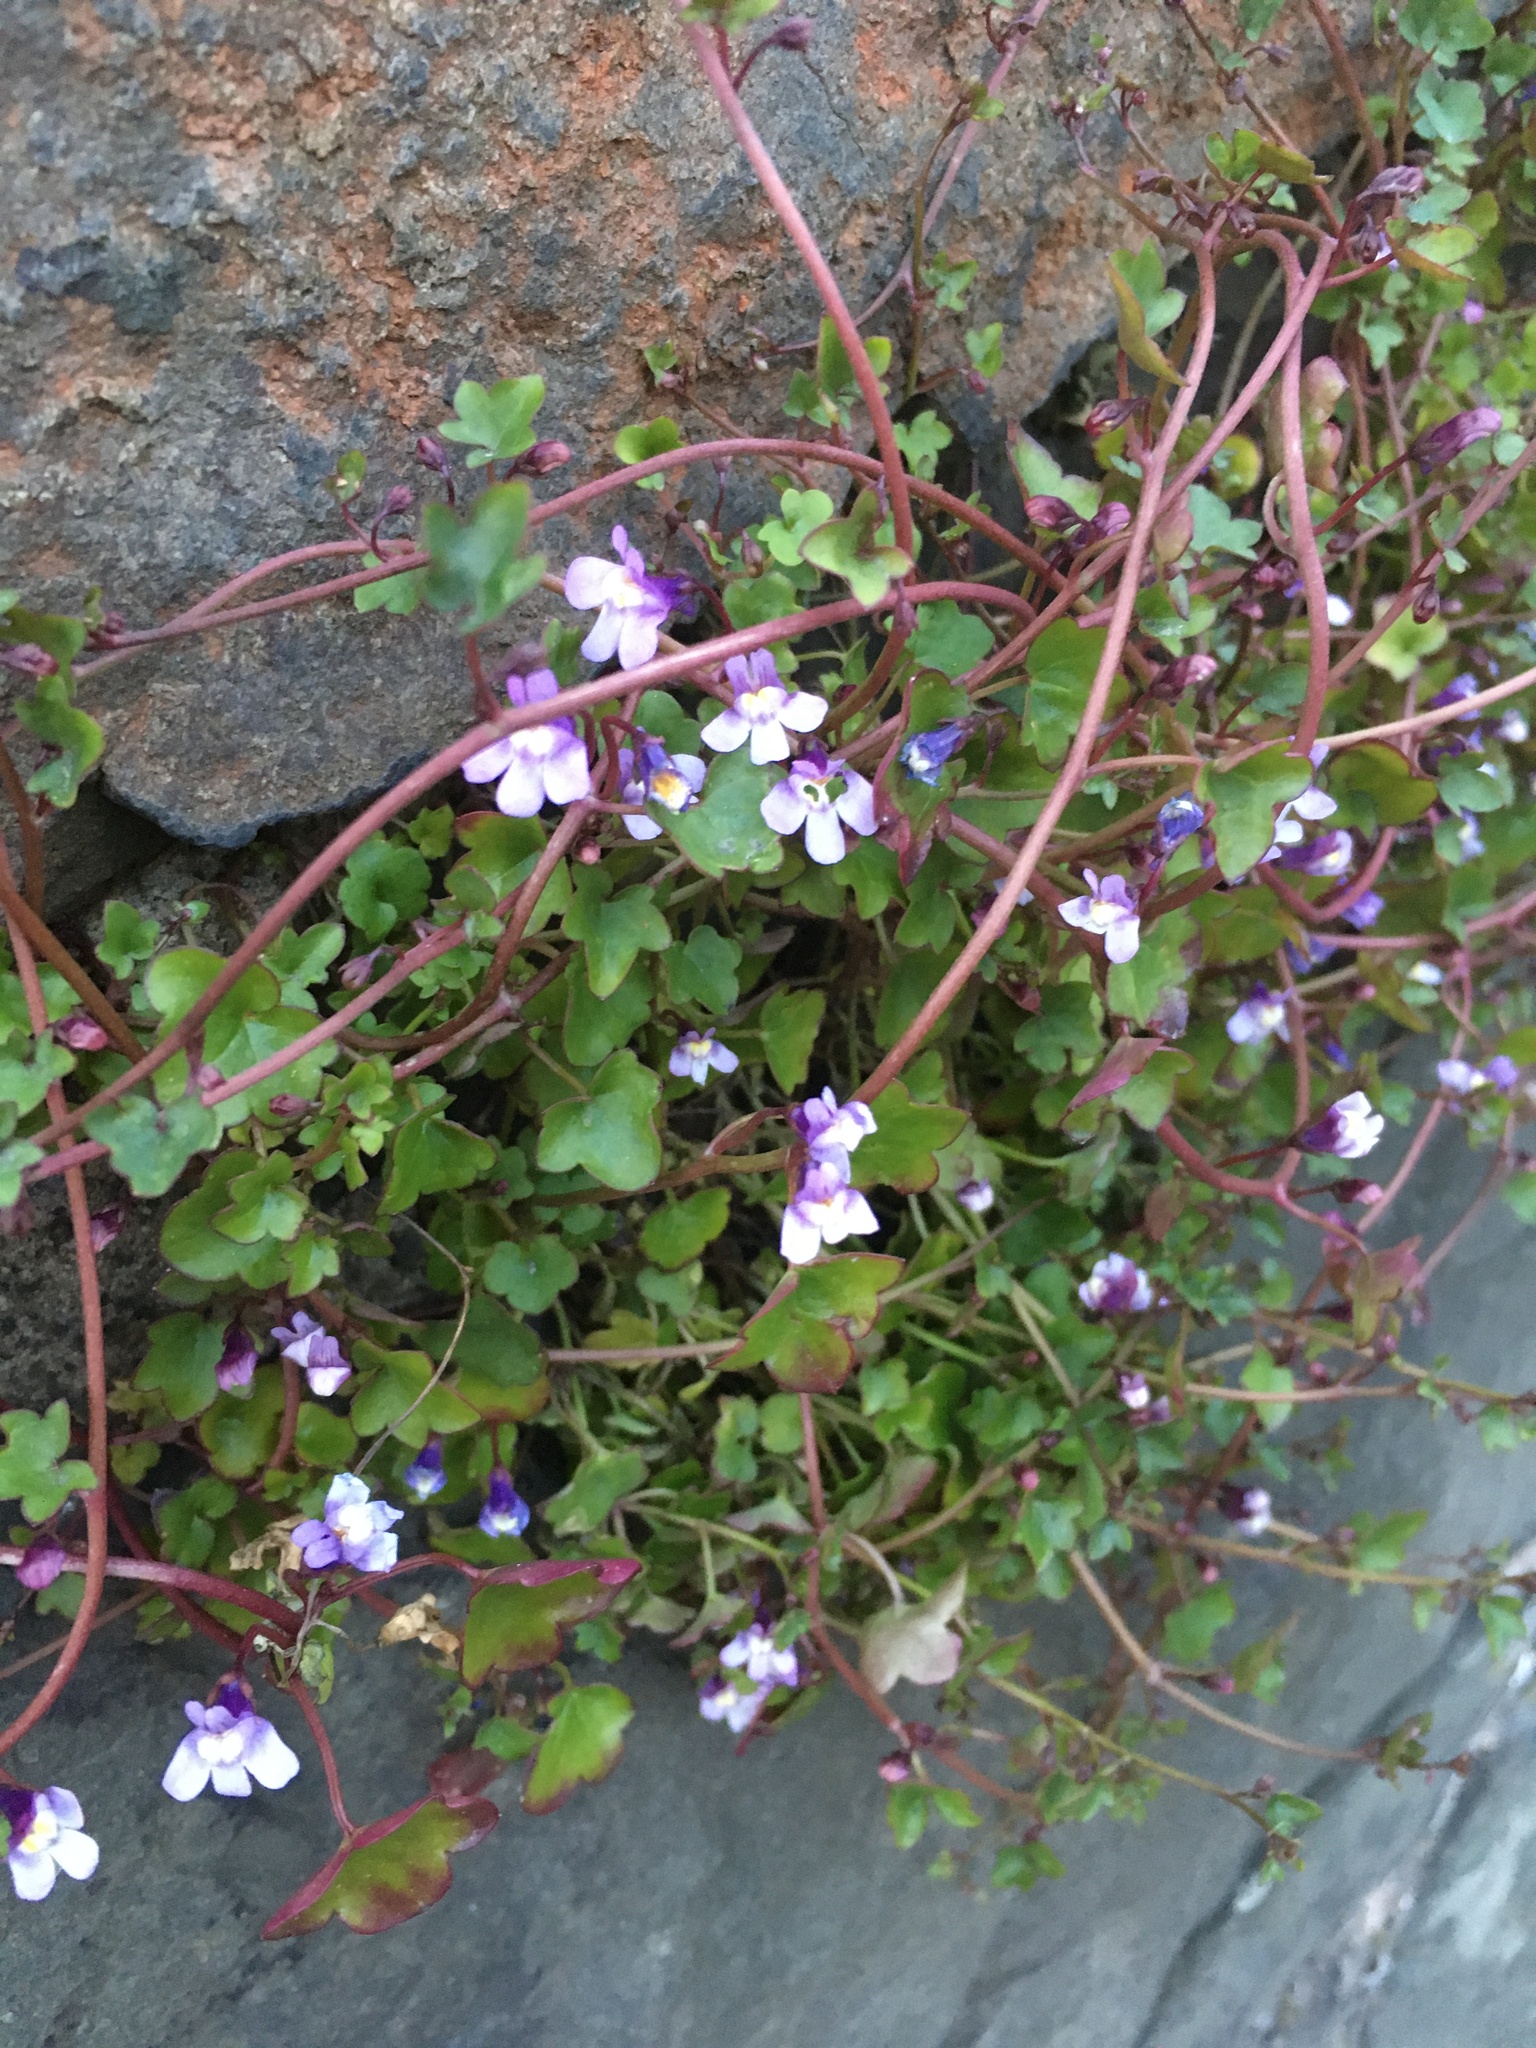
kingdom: Plantae
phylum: Tracheophyta
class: Magnoliopsida
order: Lamiales
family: Plantaginaceae
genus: Cymbalaria
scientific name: Cymbalaria muralis
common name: Ivy-leaved toadflax
